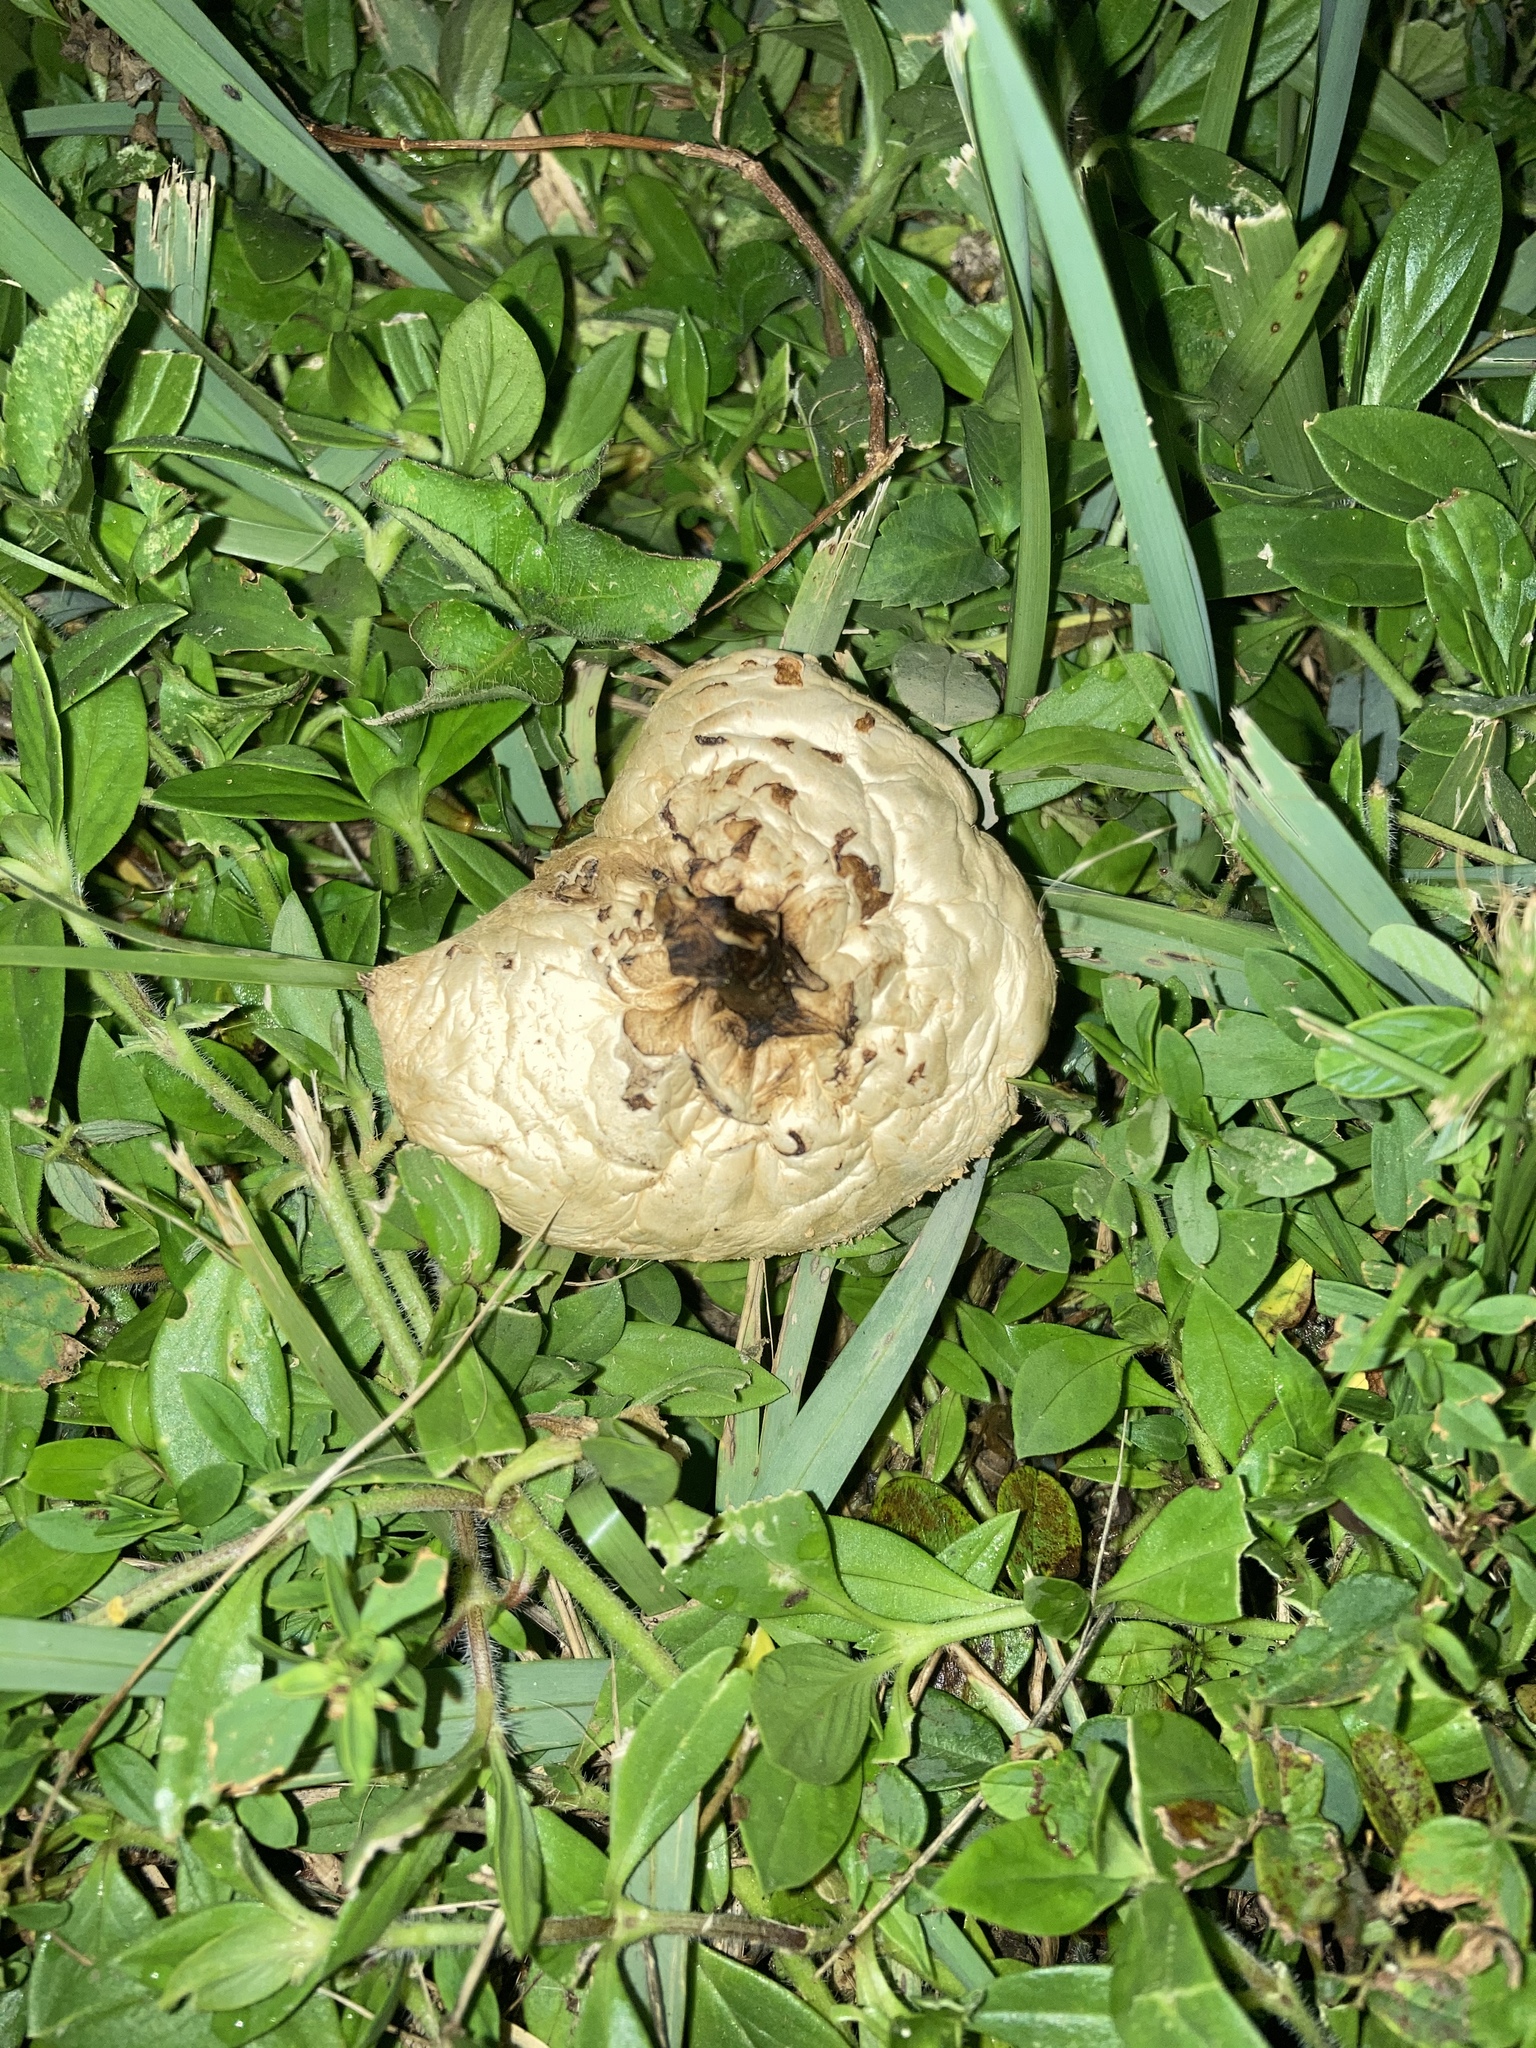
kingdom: Fungi
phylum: Basidiomycota
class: Agaricomycetes
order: Agaricales
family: Agaricaceae
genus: Chlorophyllum
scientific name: Chlorophyllum molybdites
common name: False parasol
